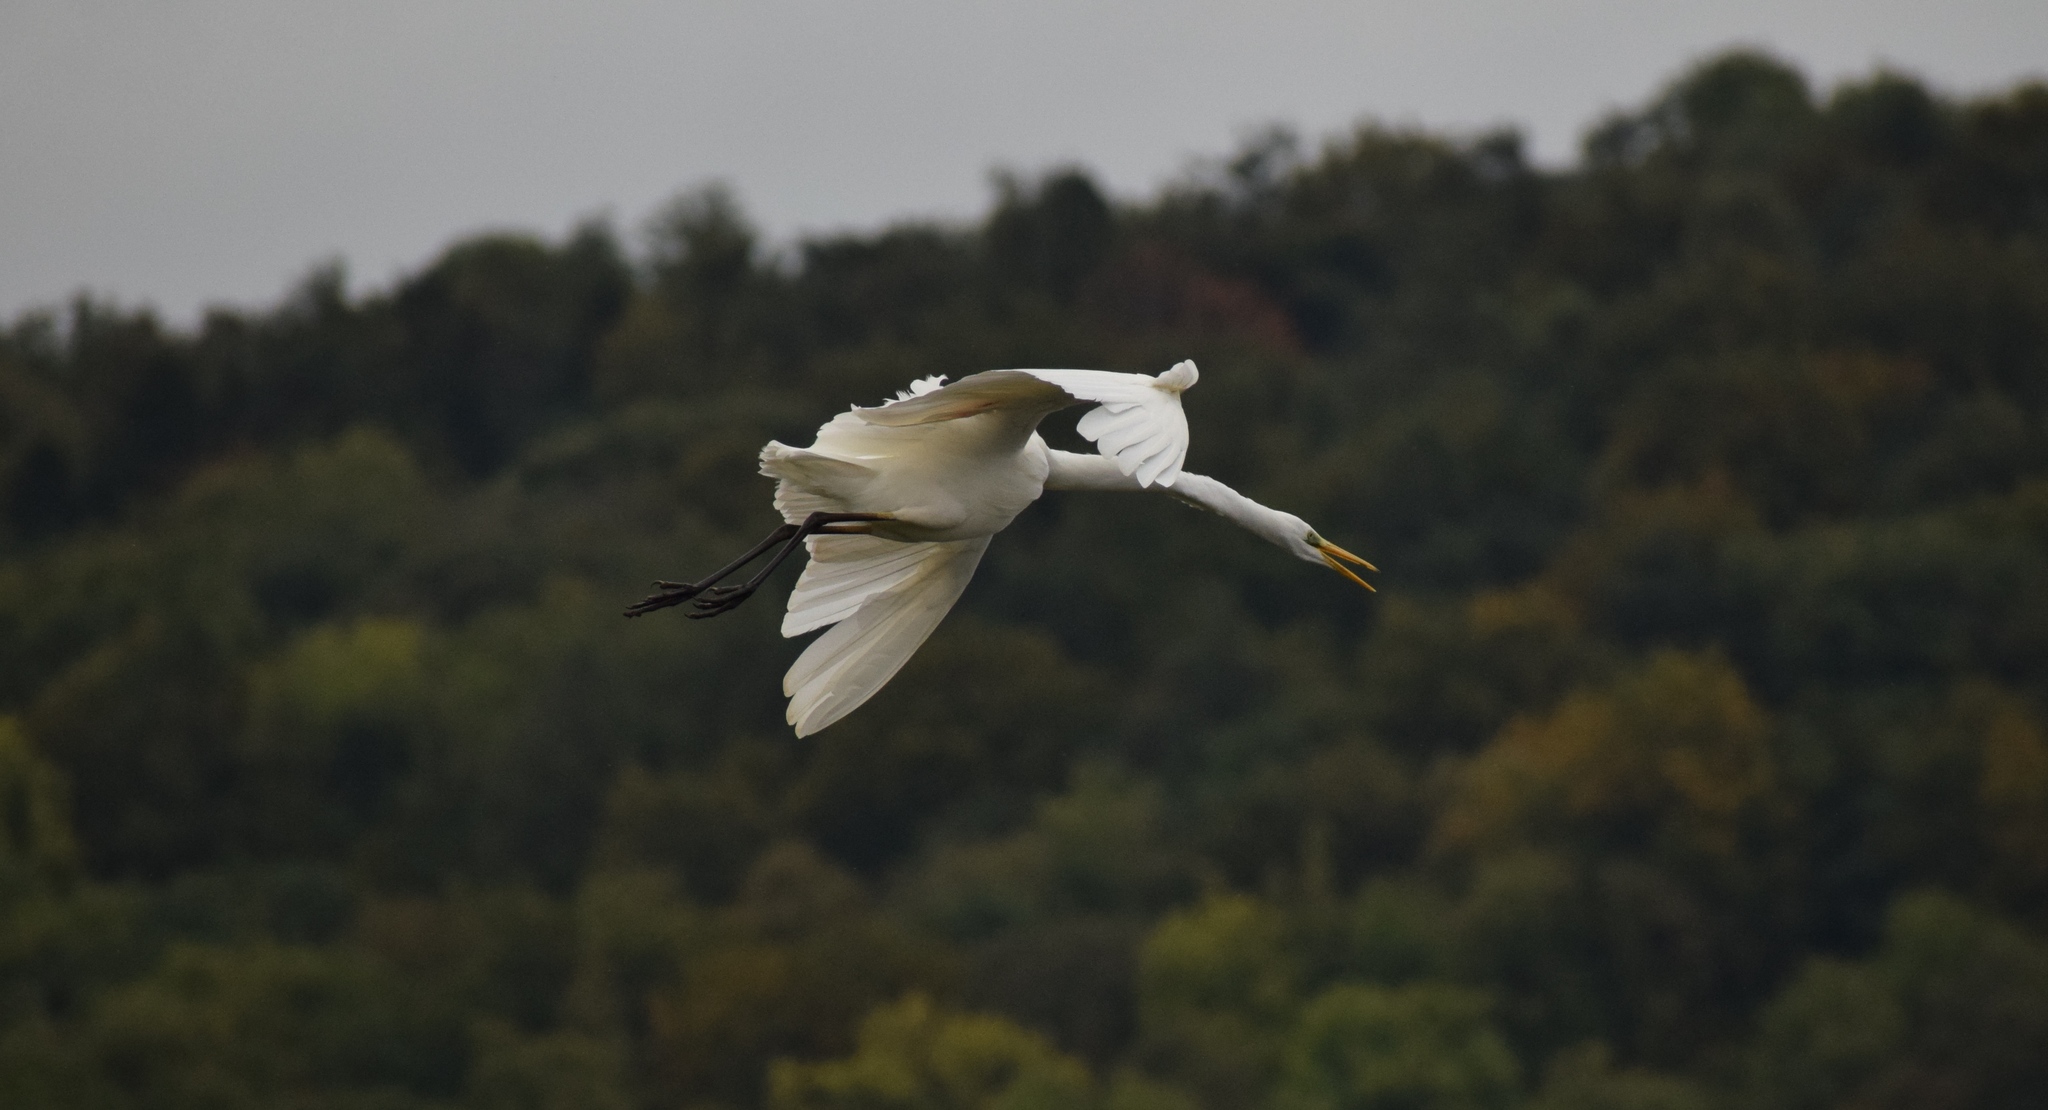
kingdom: Animalia
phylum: Chordata
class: Aves
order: Pelecaniformes
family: Ardeidae
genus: Ardea
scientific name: Ardea alba
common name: Great egret
